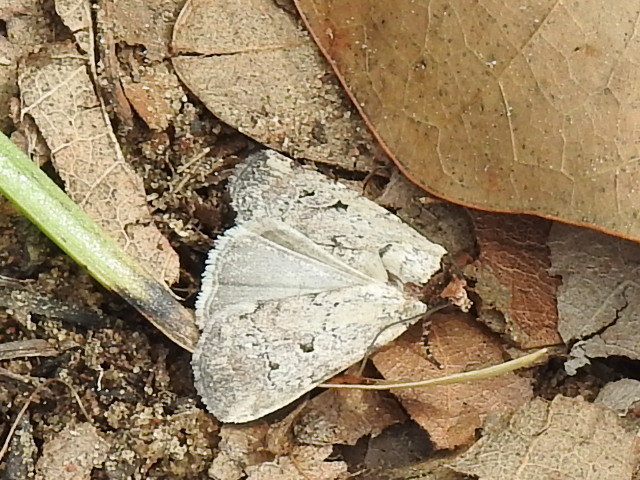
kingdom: Animalia
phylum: Arthropoda
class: Insecta
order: Lepidoptera
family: Noctuidae
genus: Elaphria
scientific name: Elaphria festivoides
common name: Festive midget
